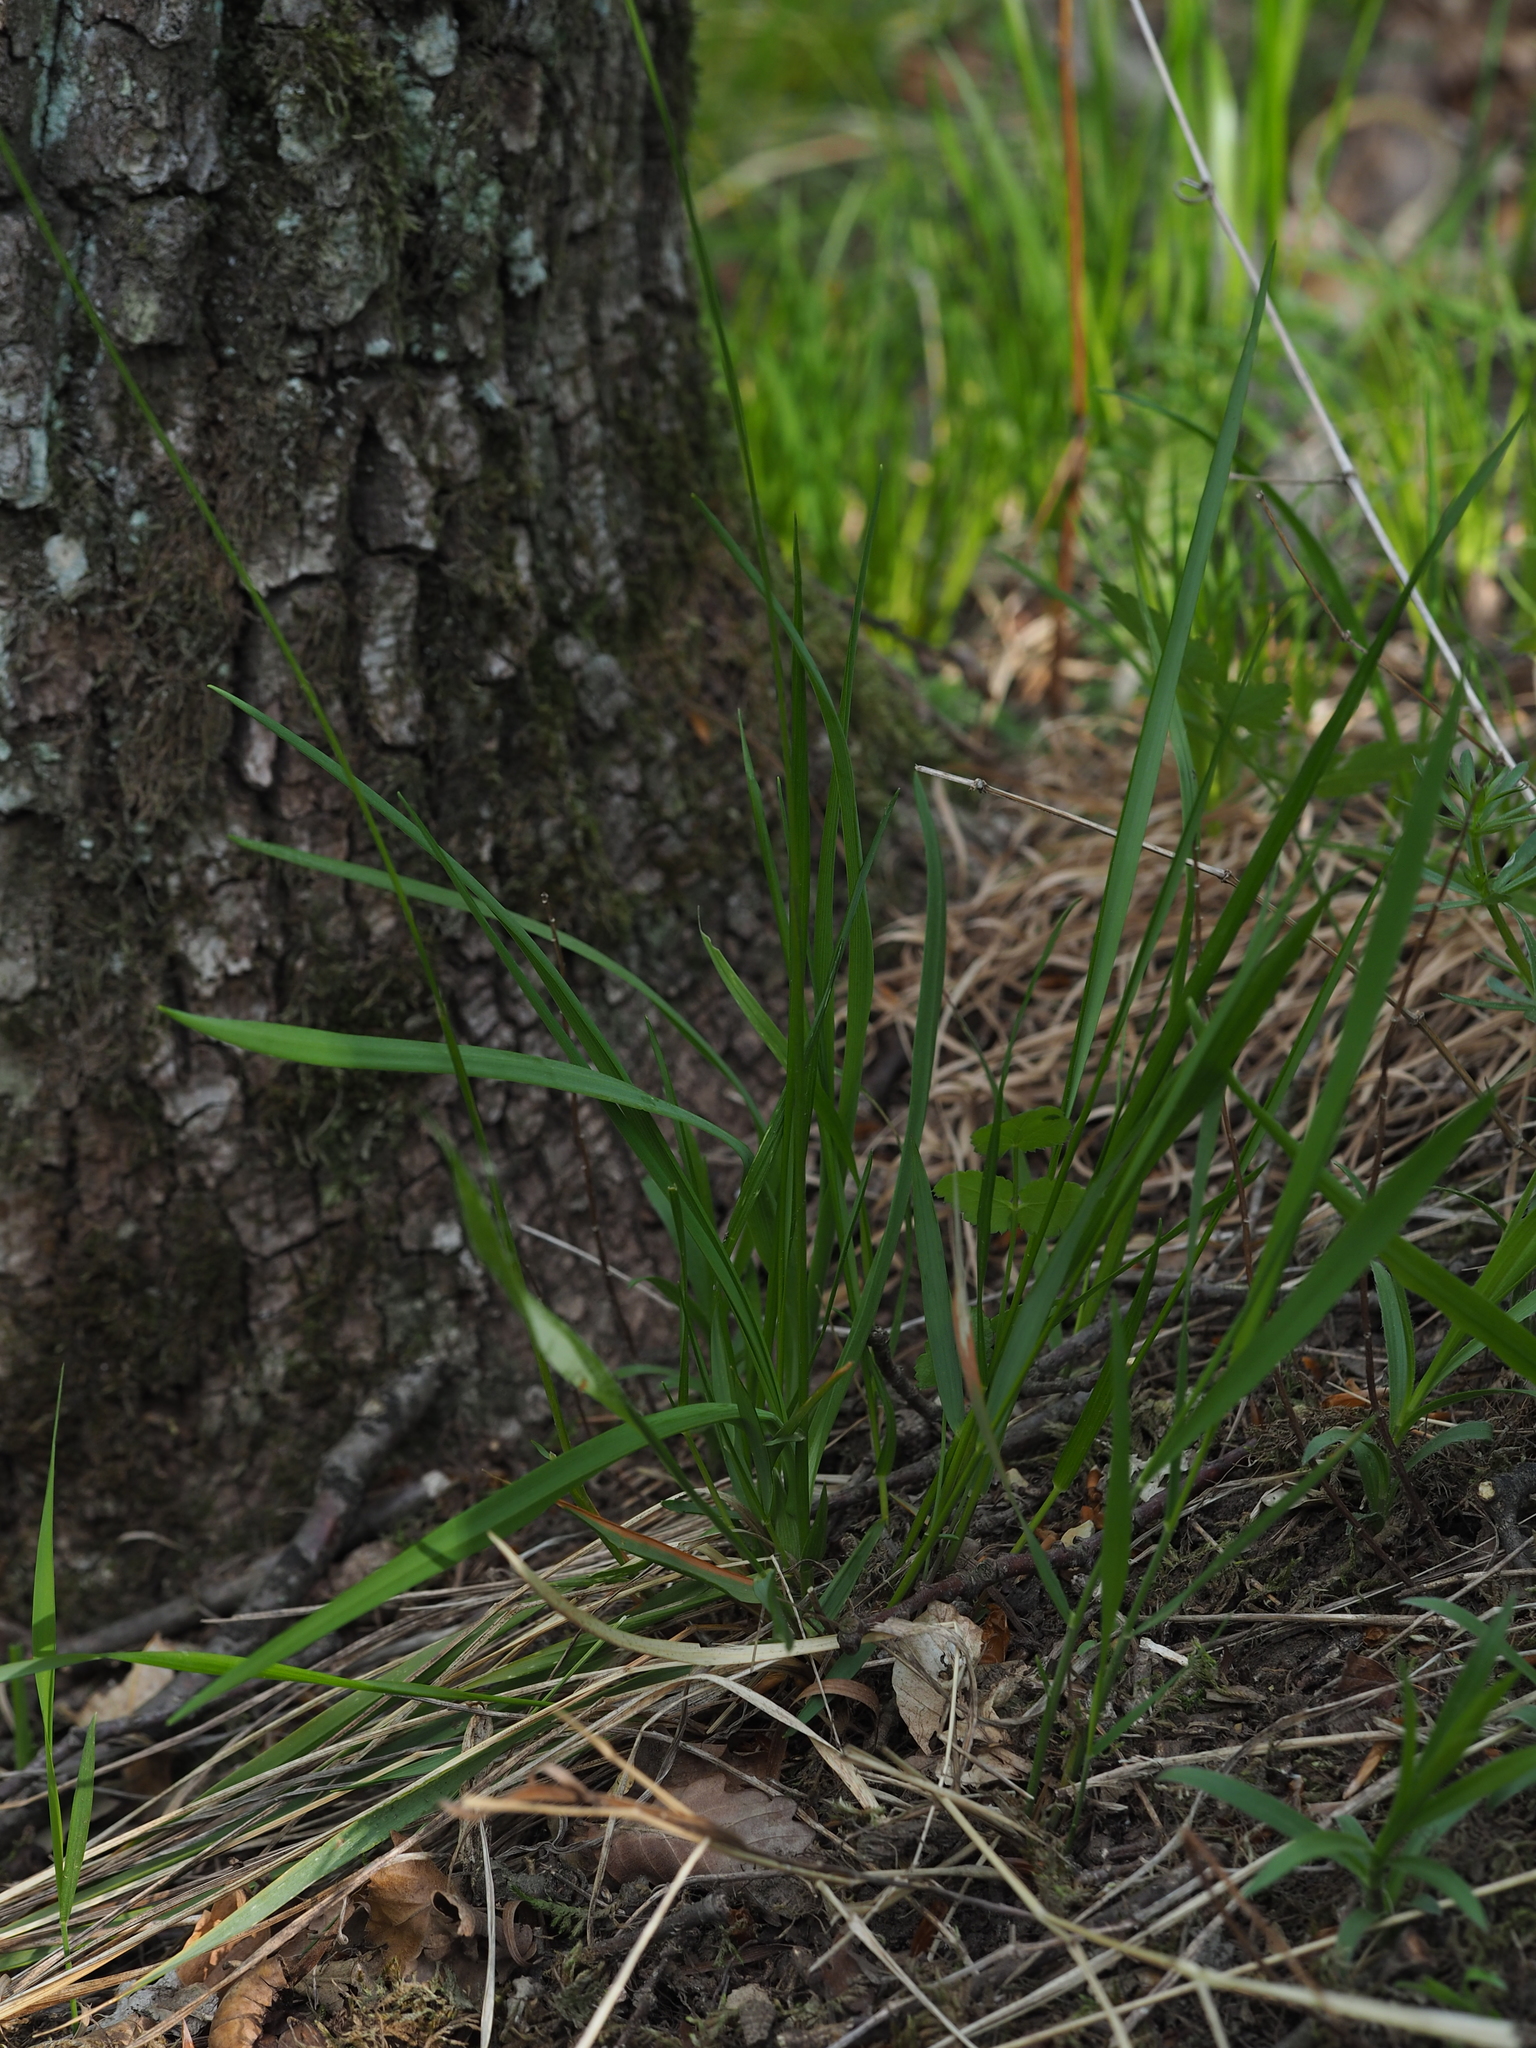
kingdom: Plantae
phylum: Tracheophyta
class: Liliopsida
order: Poales
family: Poaceae
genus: Anthoxanthum
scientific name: Anthoxanthum australe
